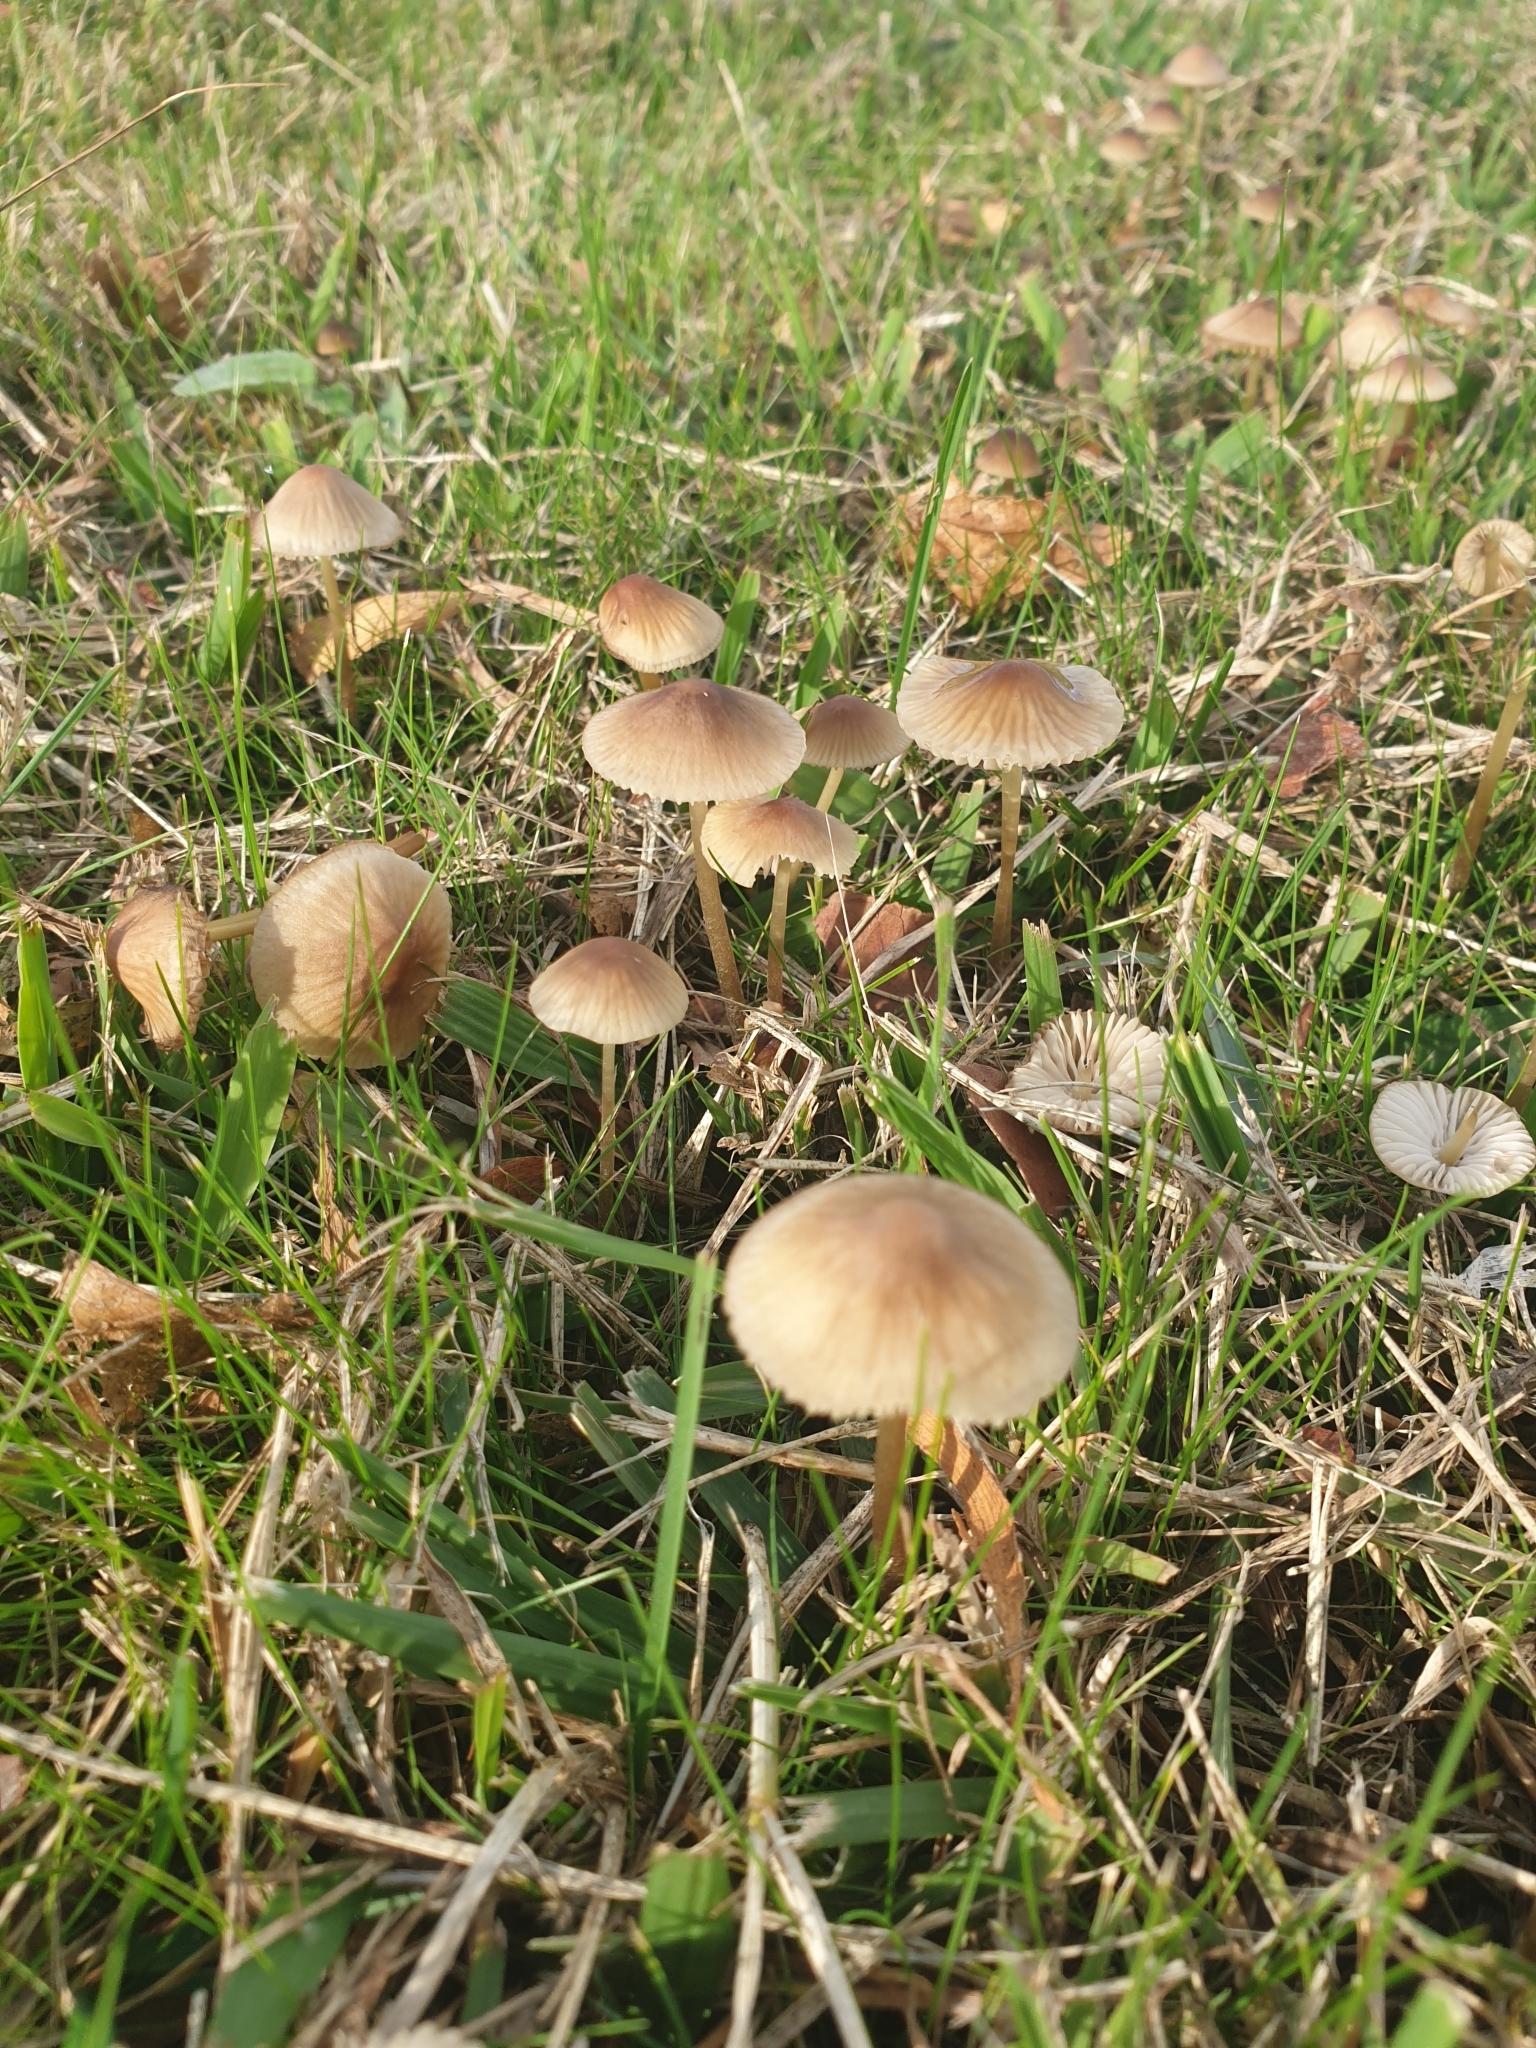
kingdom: Fungi
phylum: Basidiomycota
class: Agaricomycetes
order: Agaricales
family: Mycenaceae
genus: Mycena
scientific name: Mycena olivaceomarginata
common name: Brownedge bonnet
